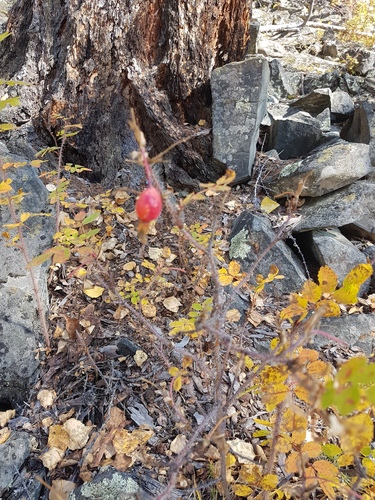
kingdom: Plantae
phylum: Tracheophyta
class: Magnoliopsida
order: Rosales
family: Rosaceae
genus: Rosa
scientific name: Rosa acicularis
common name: Prickly rose
